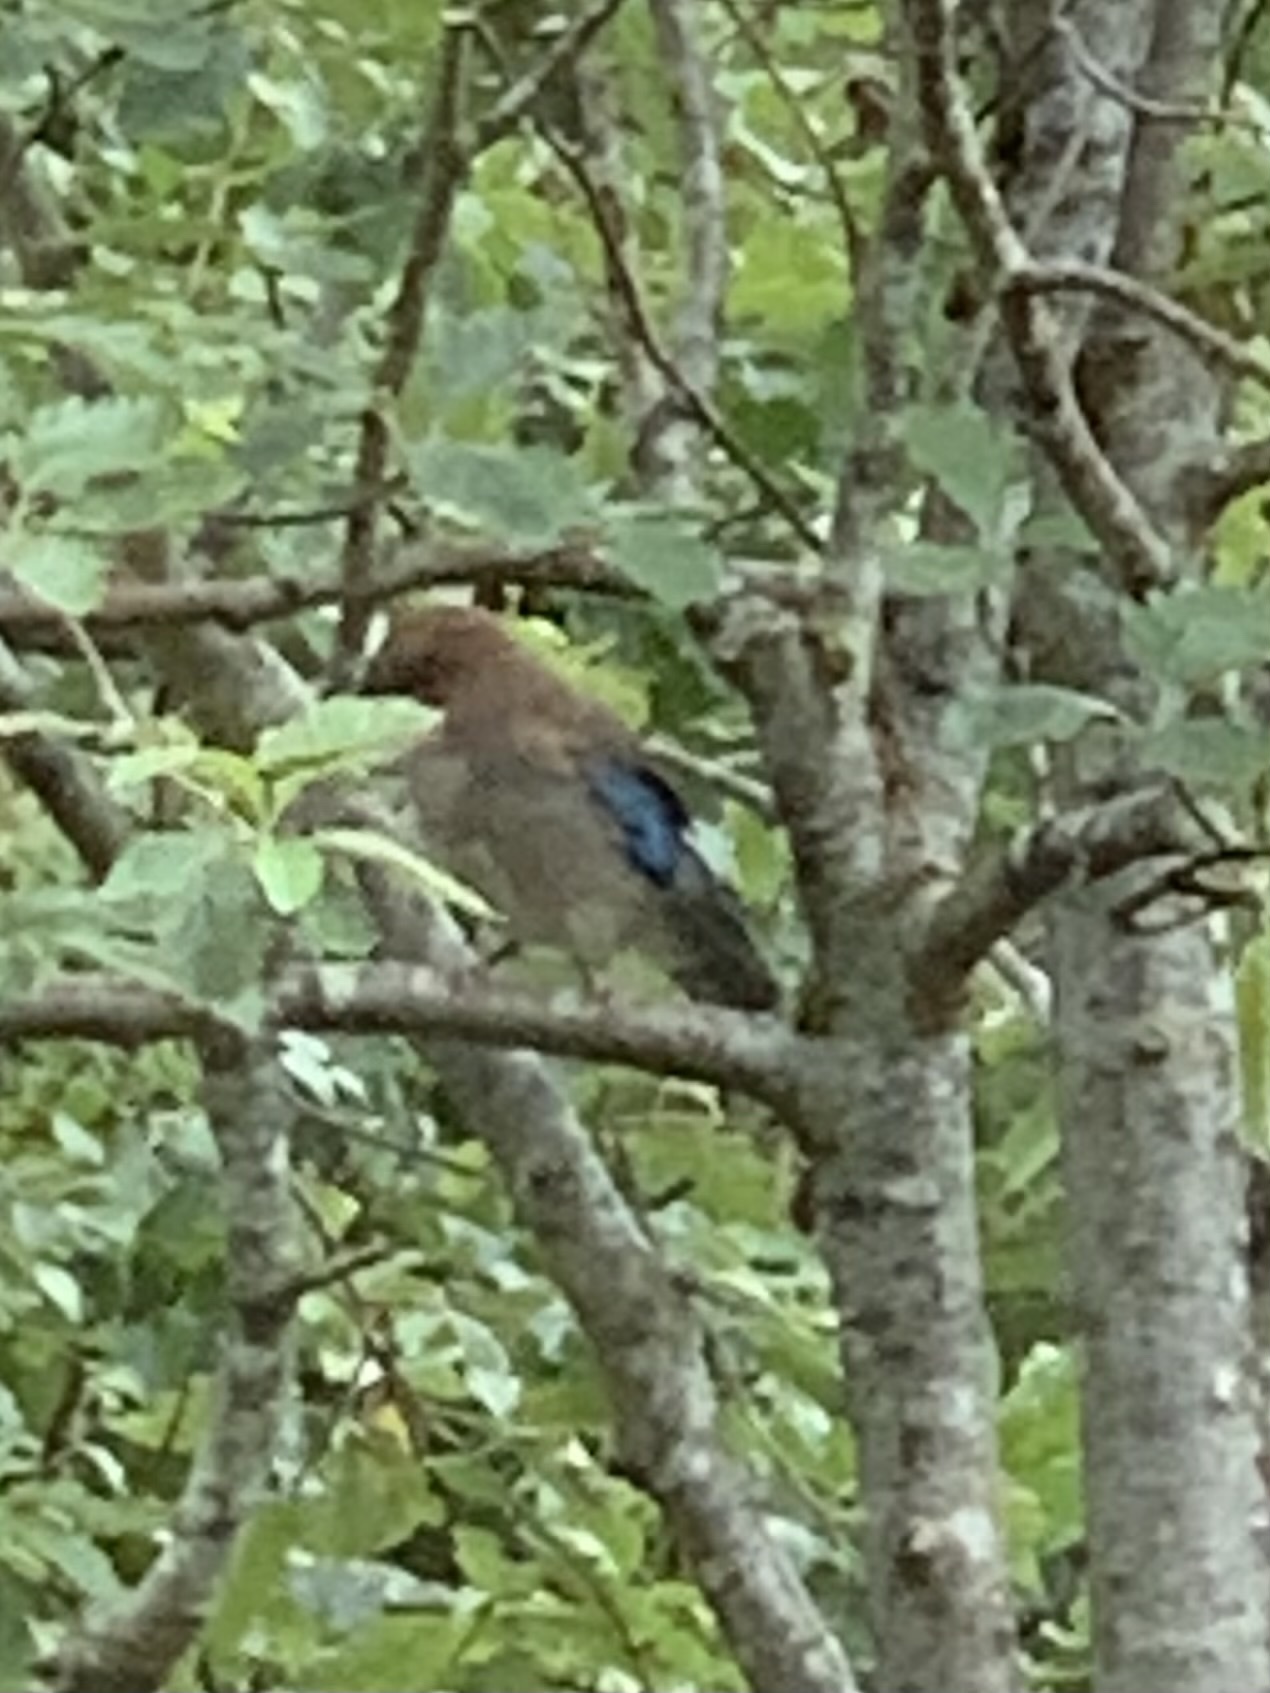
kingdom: Animalia
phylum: Chordata
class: Aves
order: Passeriformes
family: Corvidae
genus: Garrulus
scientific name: Garrulus glandarius
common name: Eurasian jay
